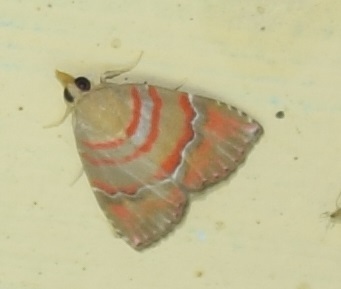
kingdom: Animalia
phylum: Arthropoda
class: Insecta
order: Lepidoptera
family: Erebidae
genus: Nolasena
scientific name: Nolasena ferrifervens
